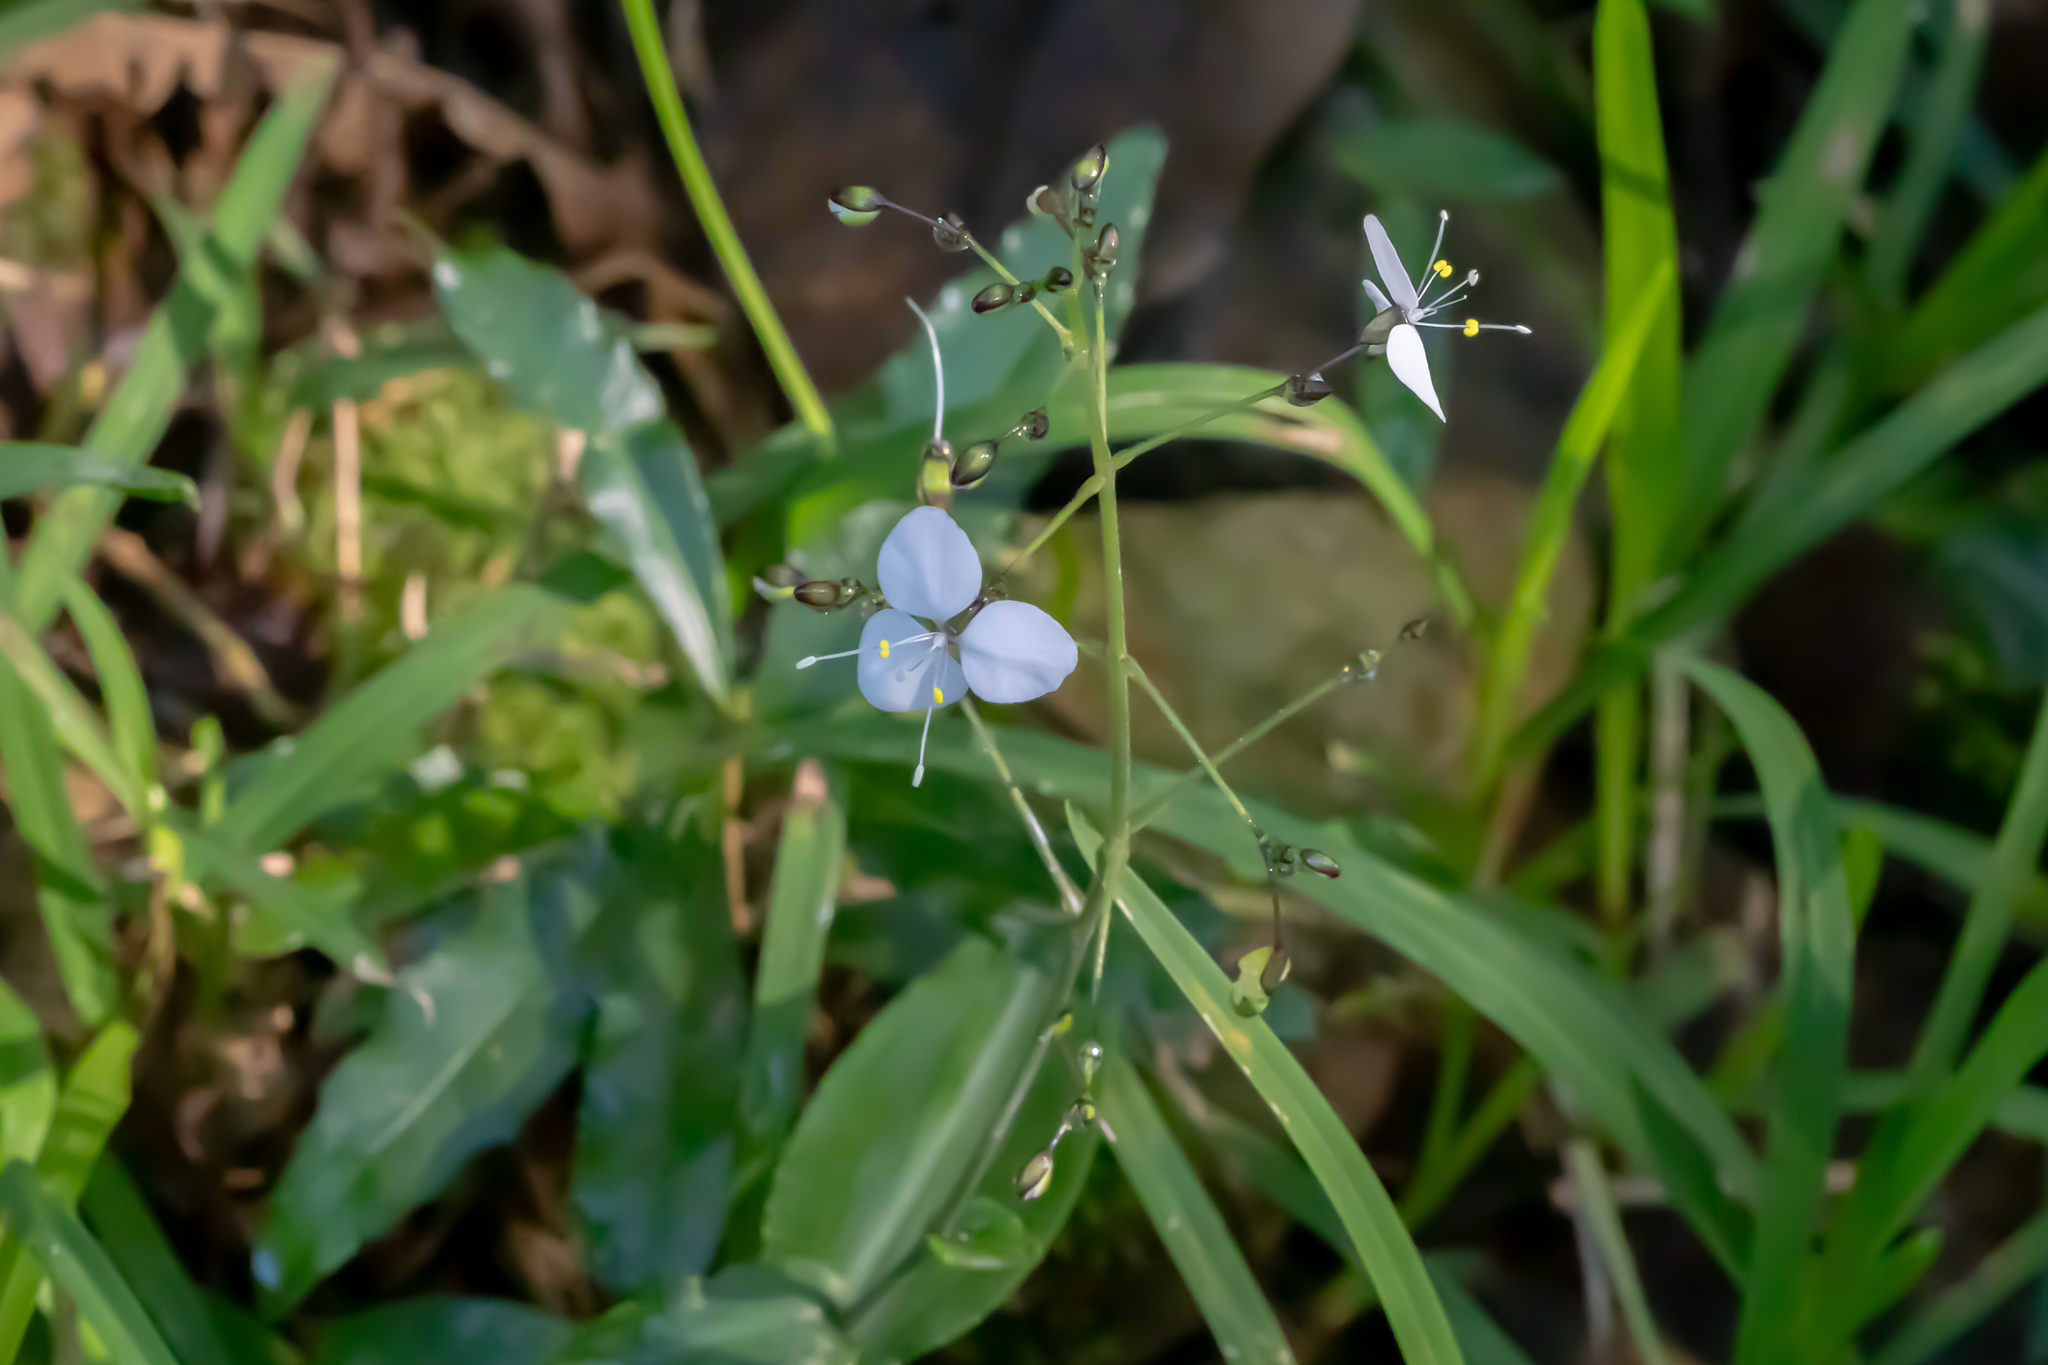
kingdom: Plantae
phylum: Tracheophyta
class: Liliopsida
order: Commelinales
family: Commelinaceae
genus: Aneilema
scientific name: Aneilema acuminatum
